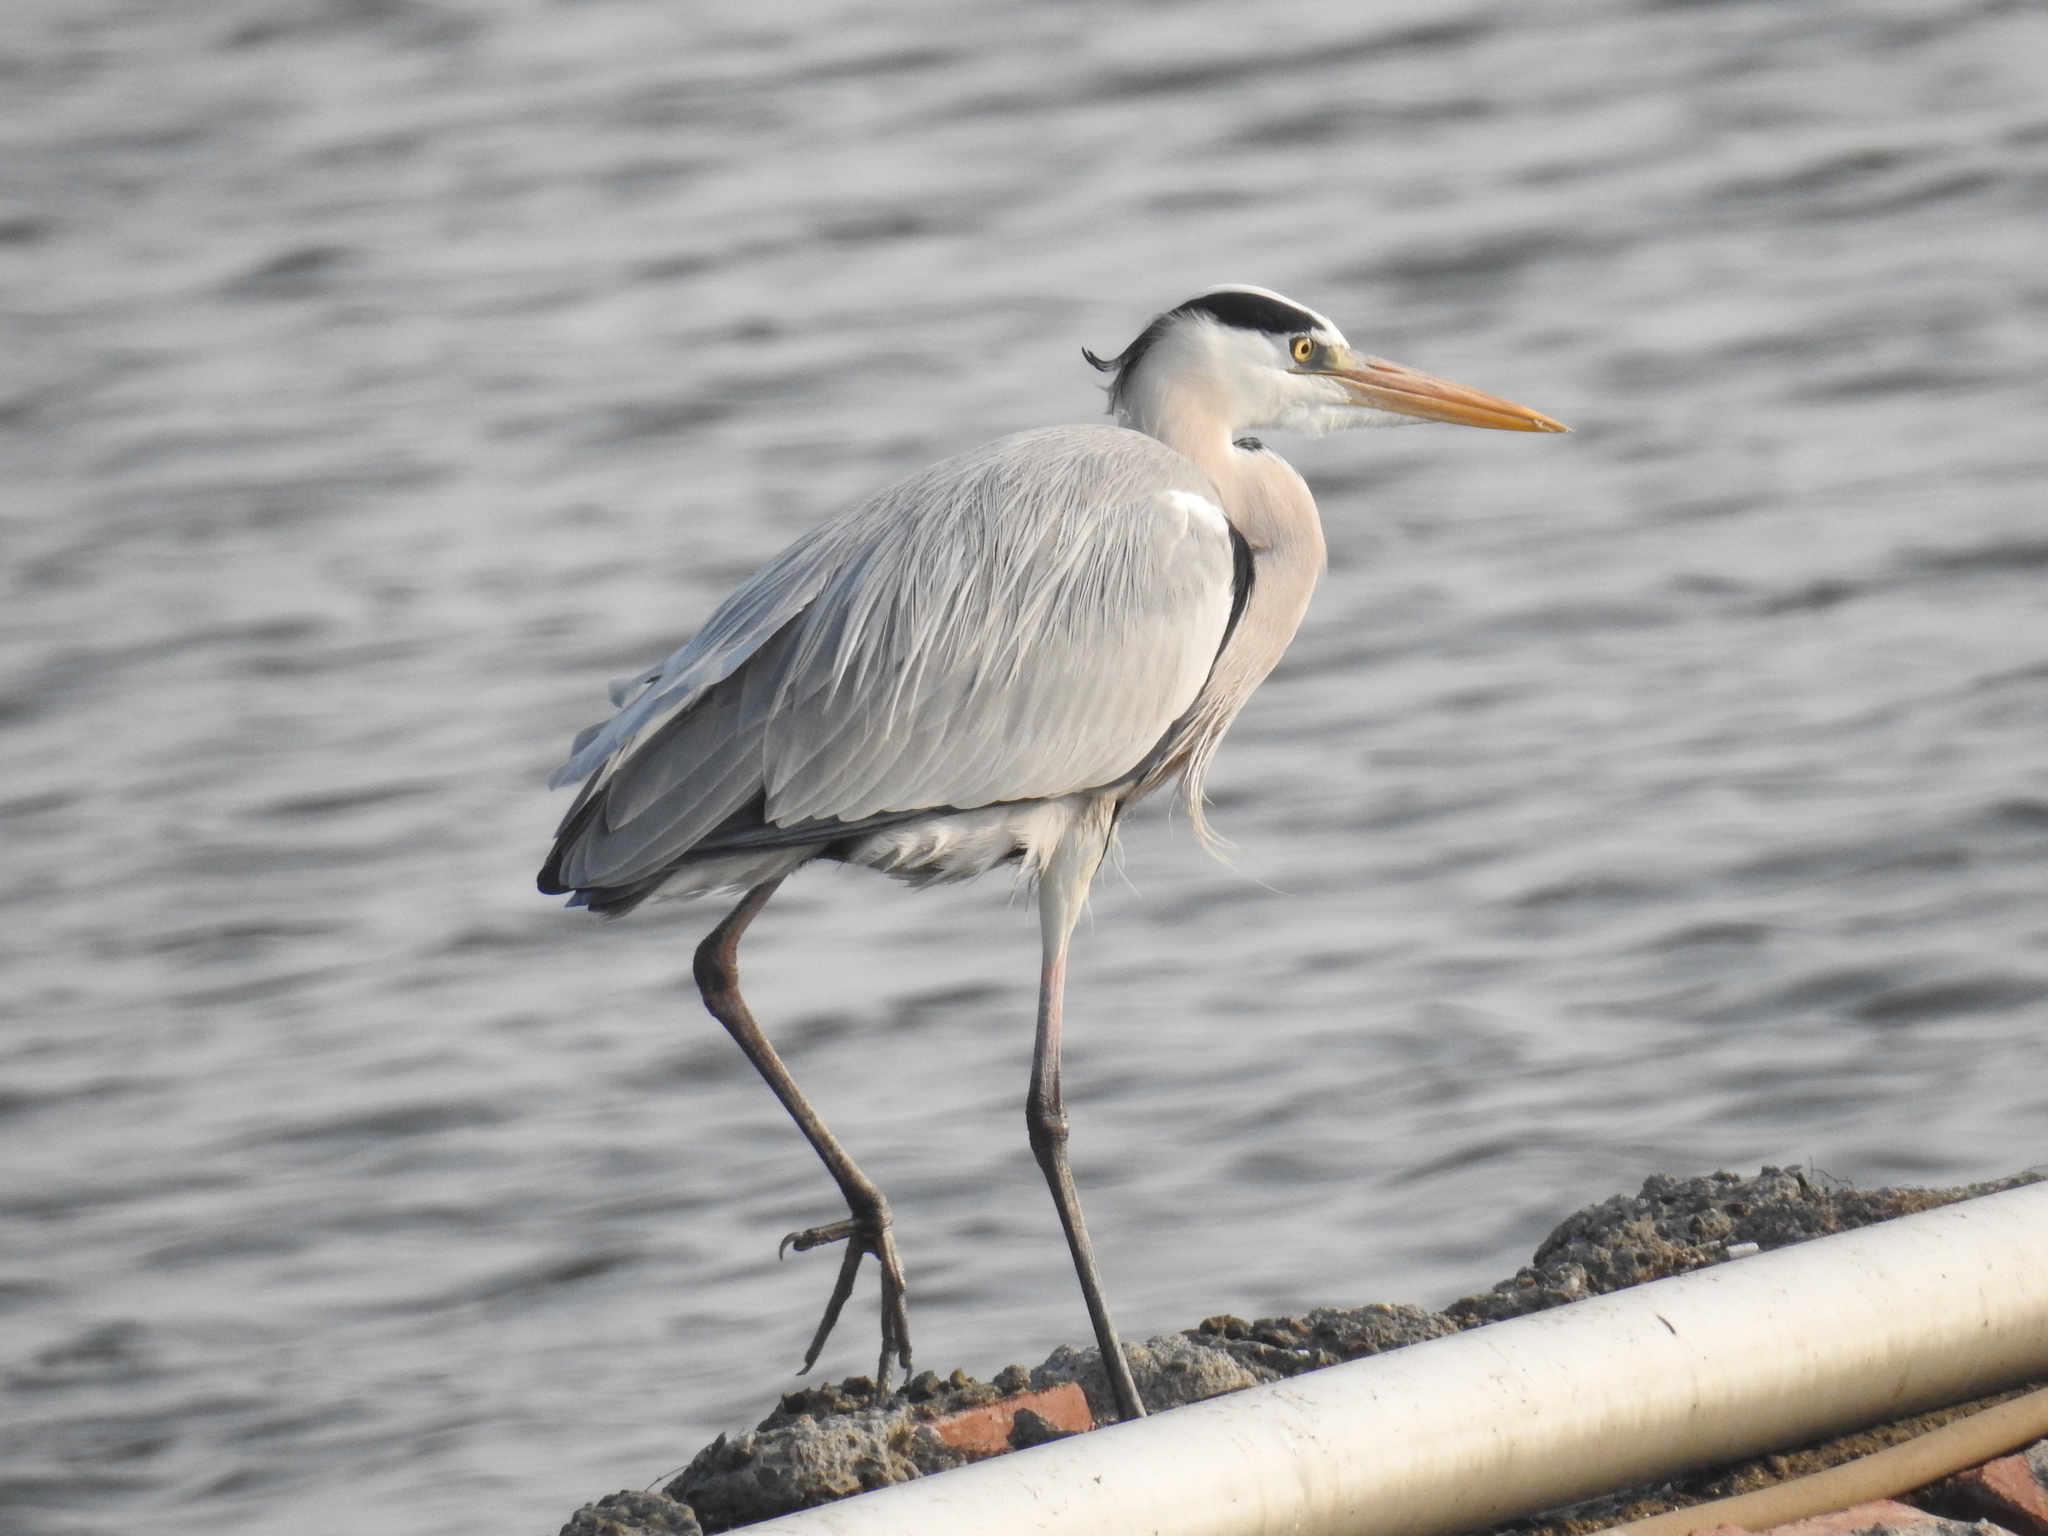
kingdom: Animalia
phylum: Chordata
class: Aves
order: Pelecaniformes
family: Ardeidae
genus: Ardea
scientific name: Ardea cinerea
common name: Grey heron
